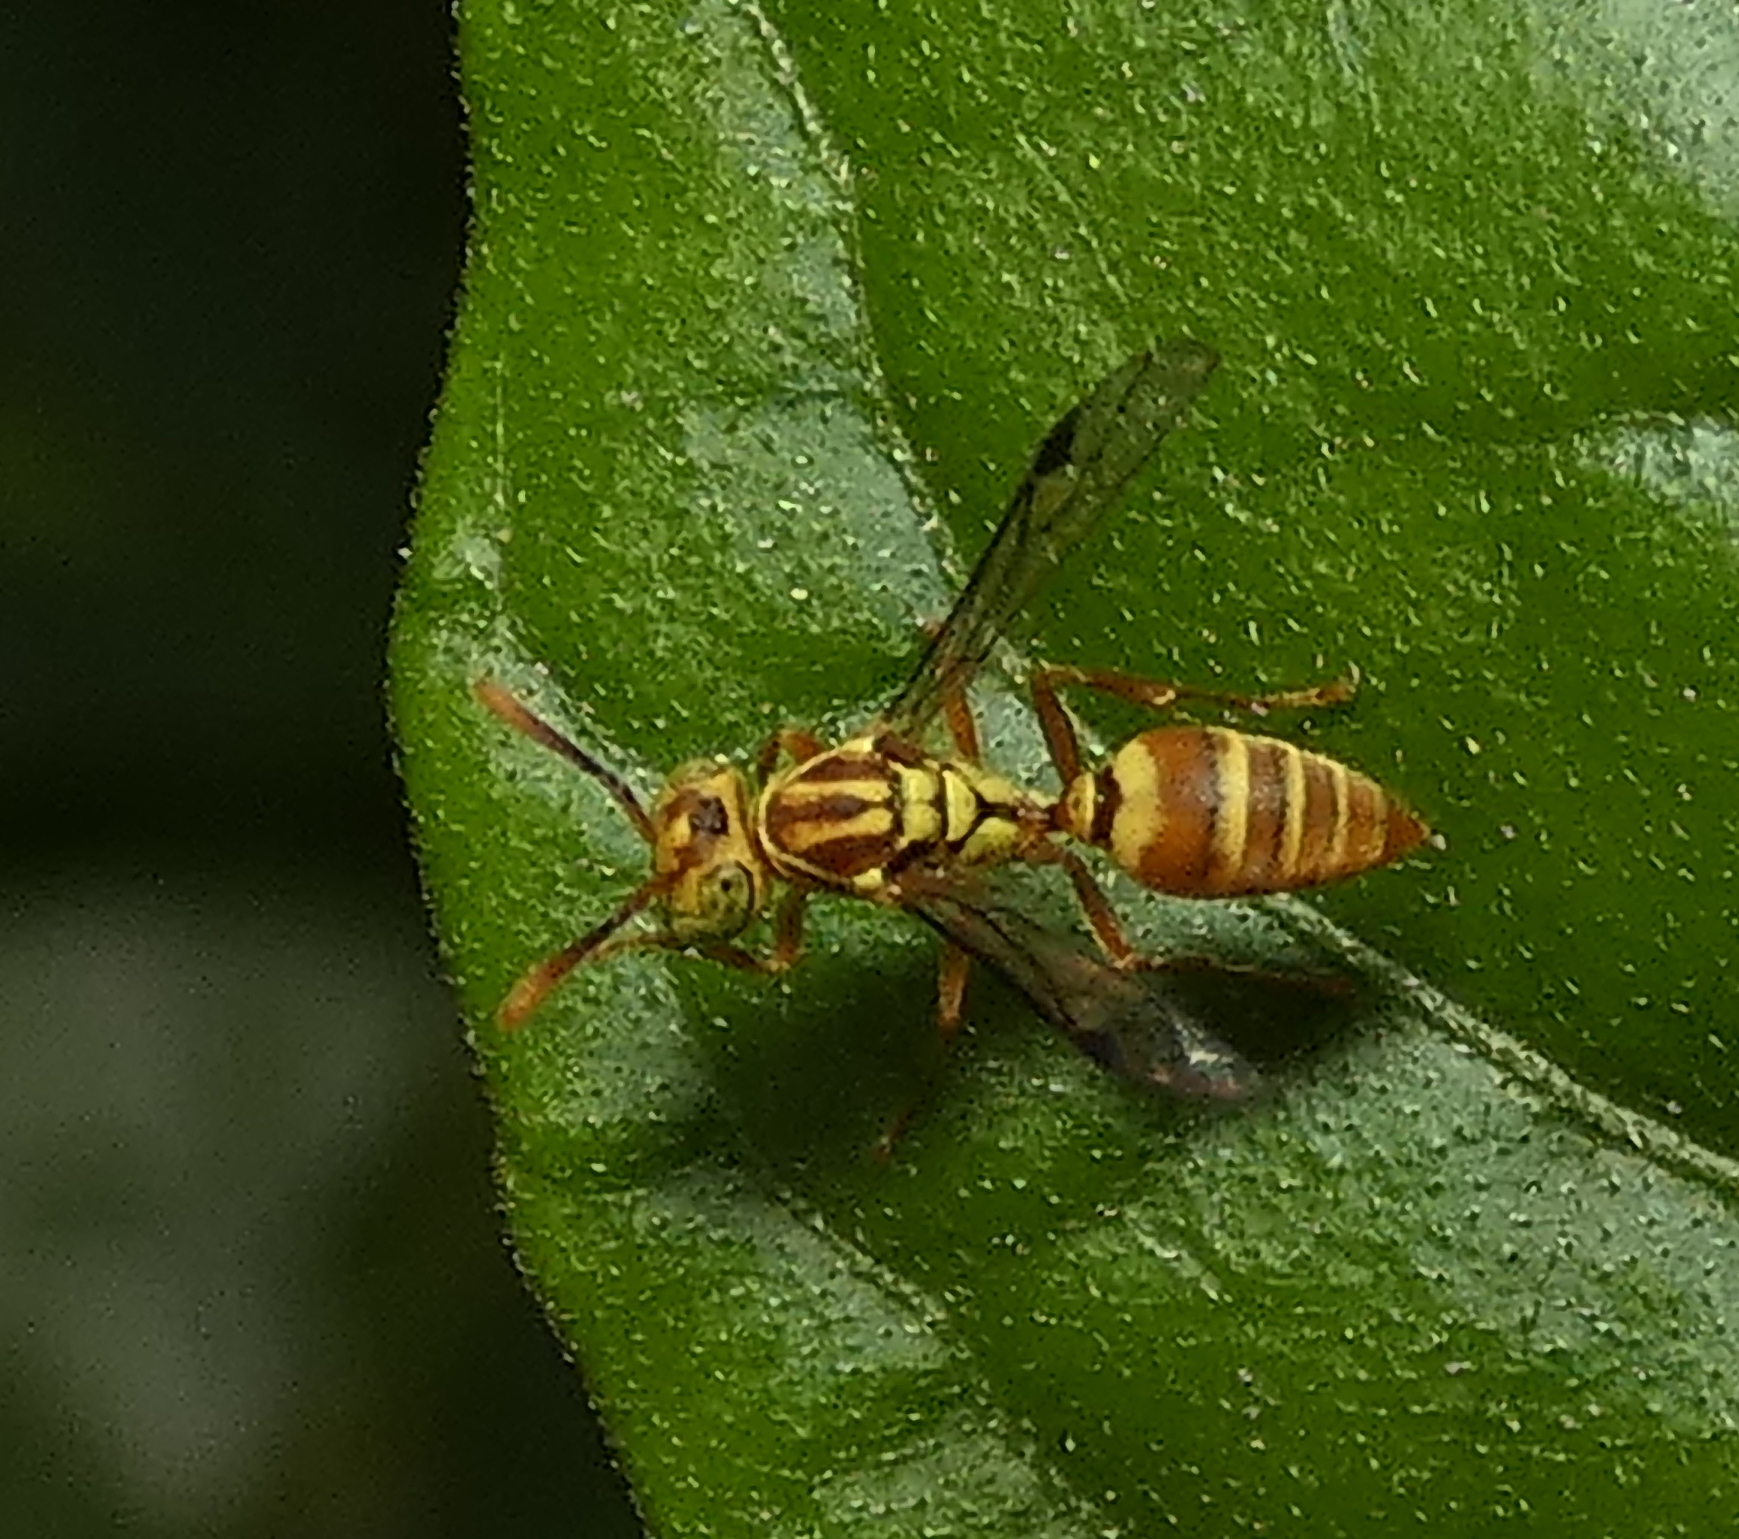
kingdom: Animalia
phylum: Arthropoda
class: Insecta
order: Hymenoptera
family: Vespidae
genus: Protopolybia
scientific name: Protopolybia potiguara
